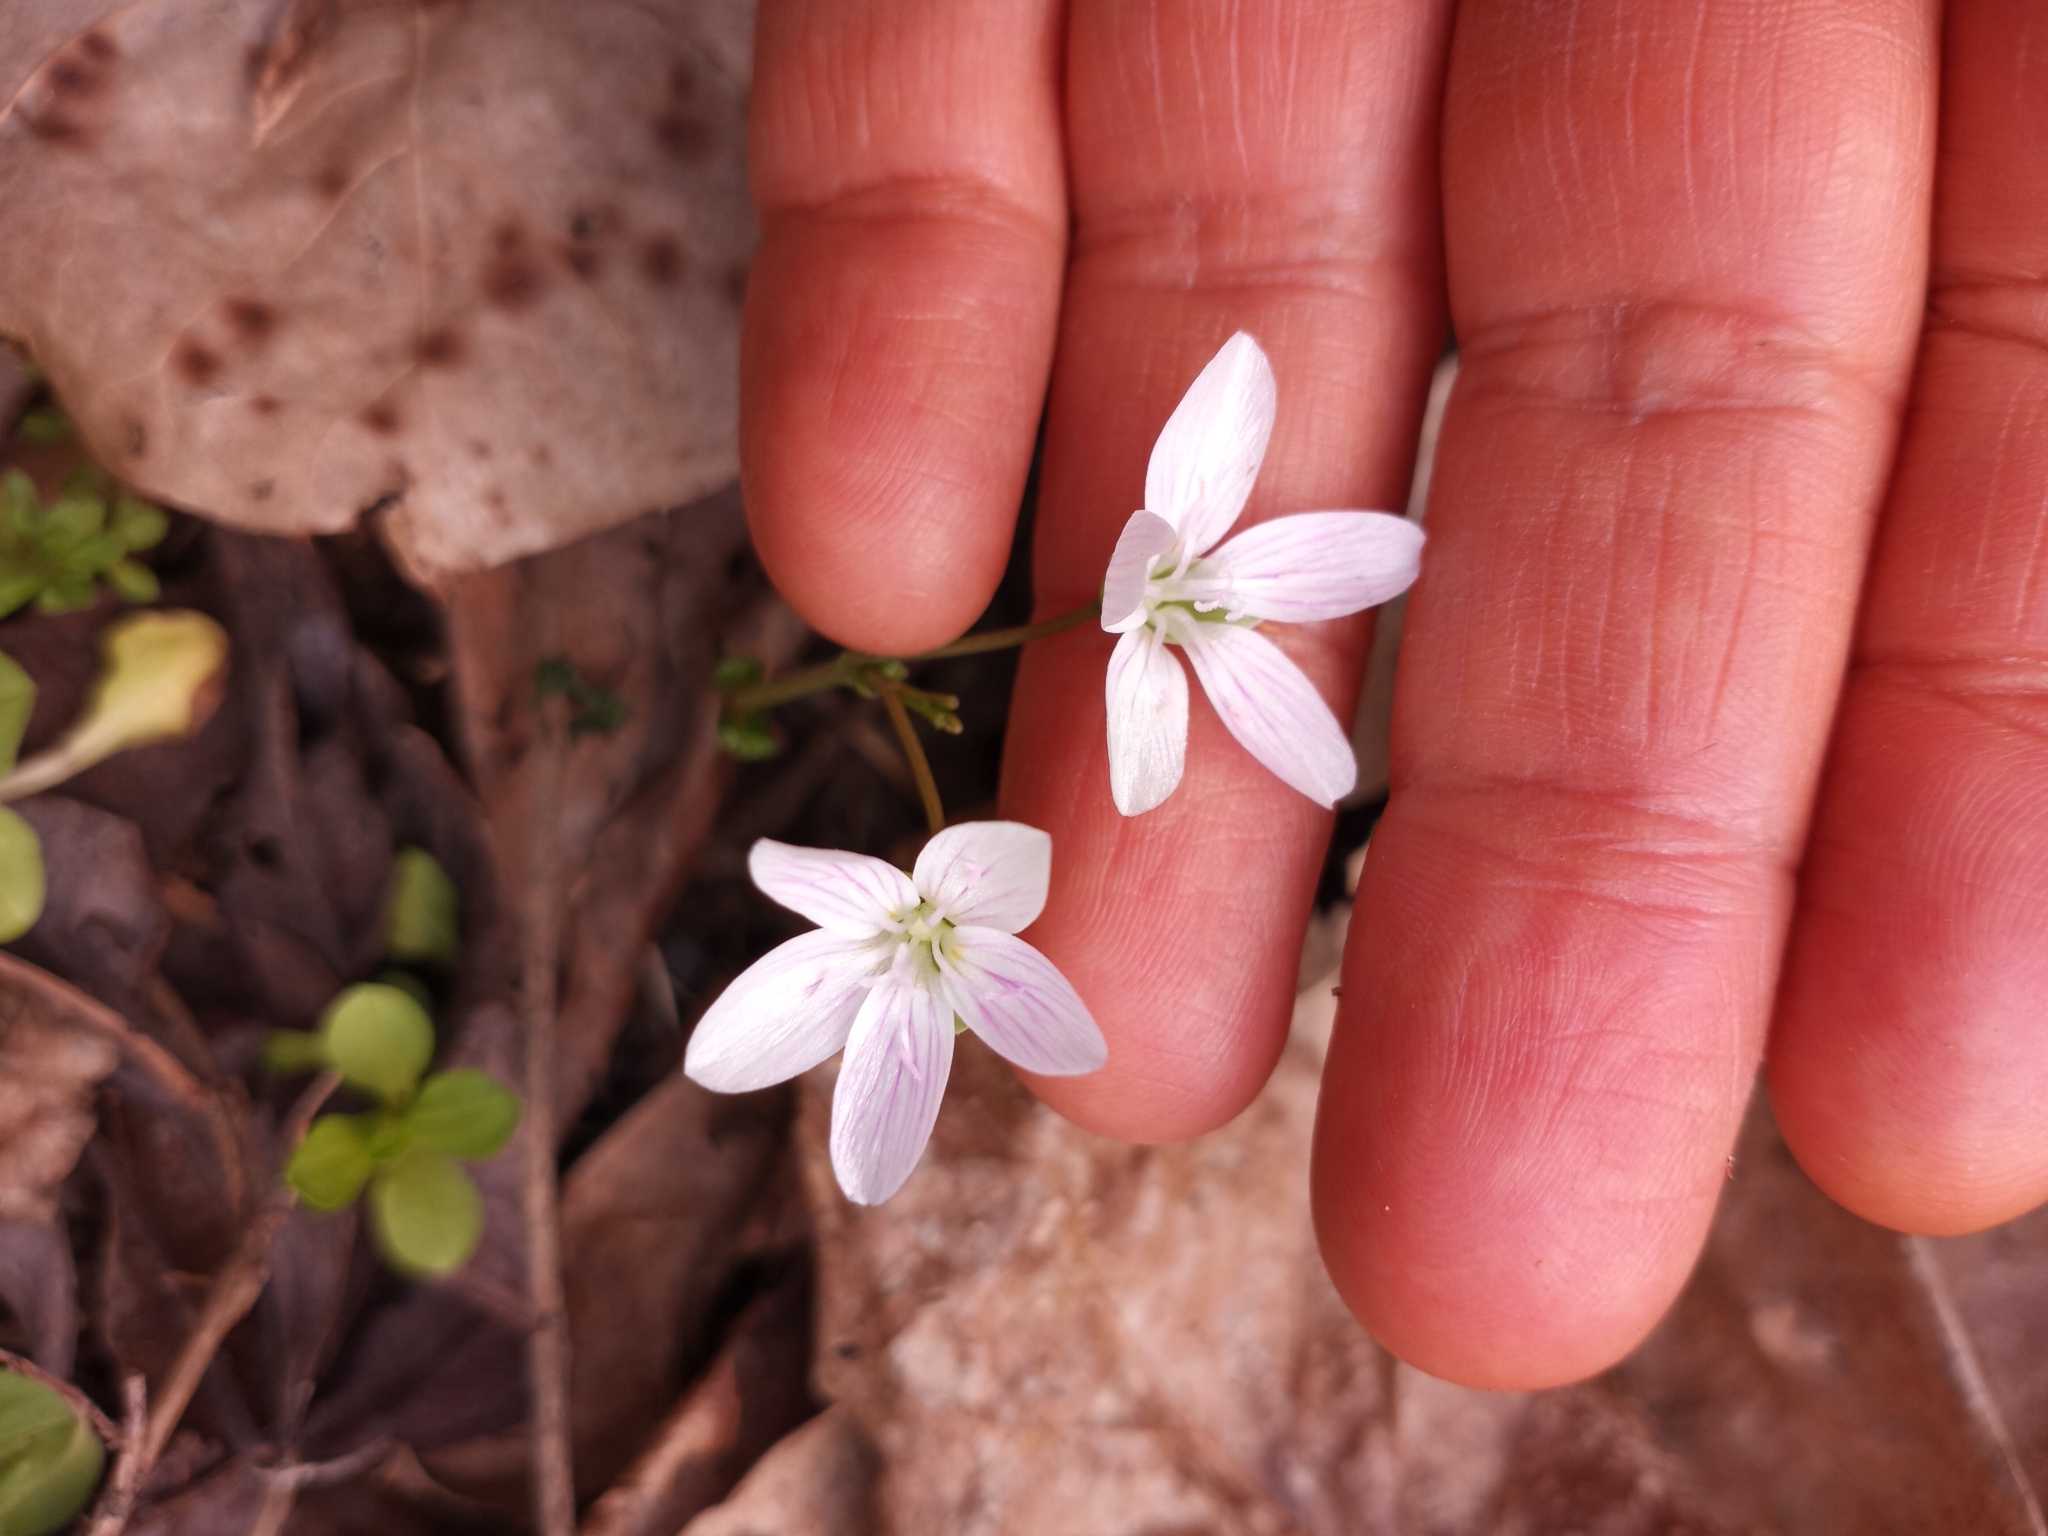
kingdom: Plantae
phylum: Tracheophyta
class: Magnoliopsida
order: Caryophyllales
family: Montiaceae
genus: Claytonia
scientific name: Claytonia virginica
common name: Virginia springbeauty
